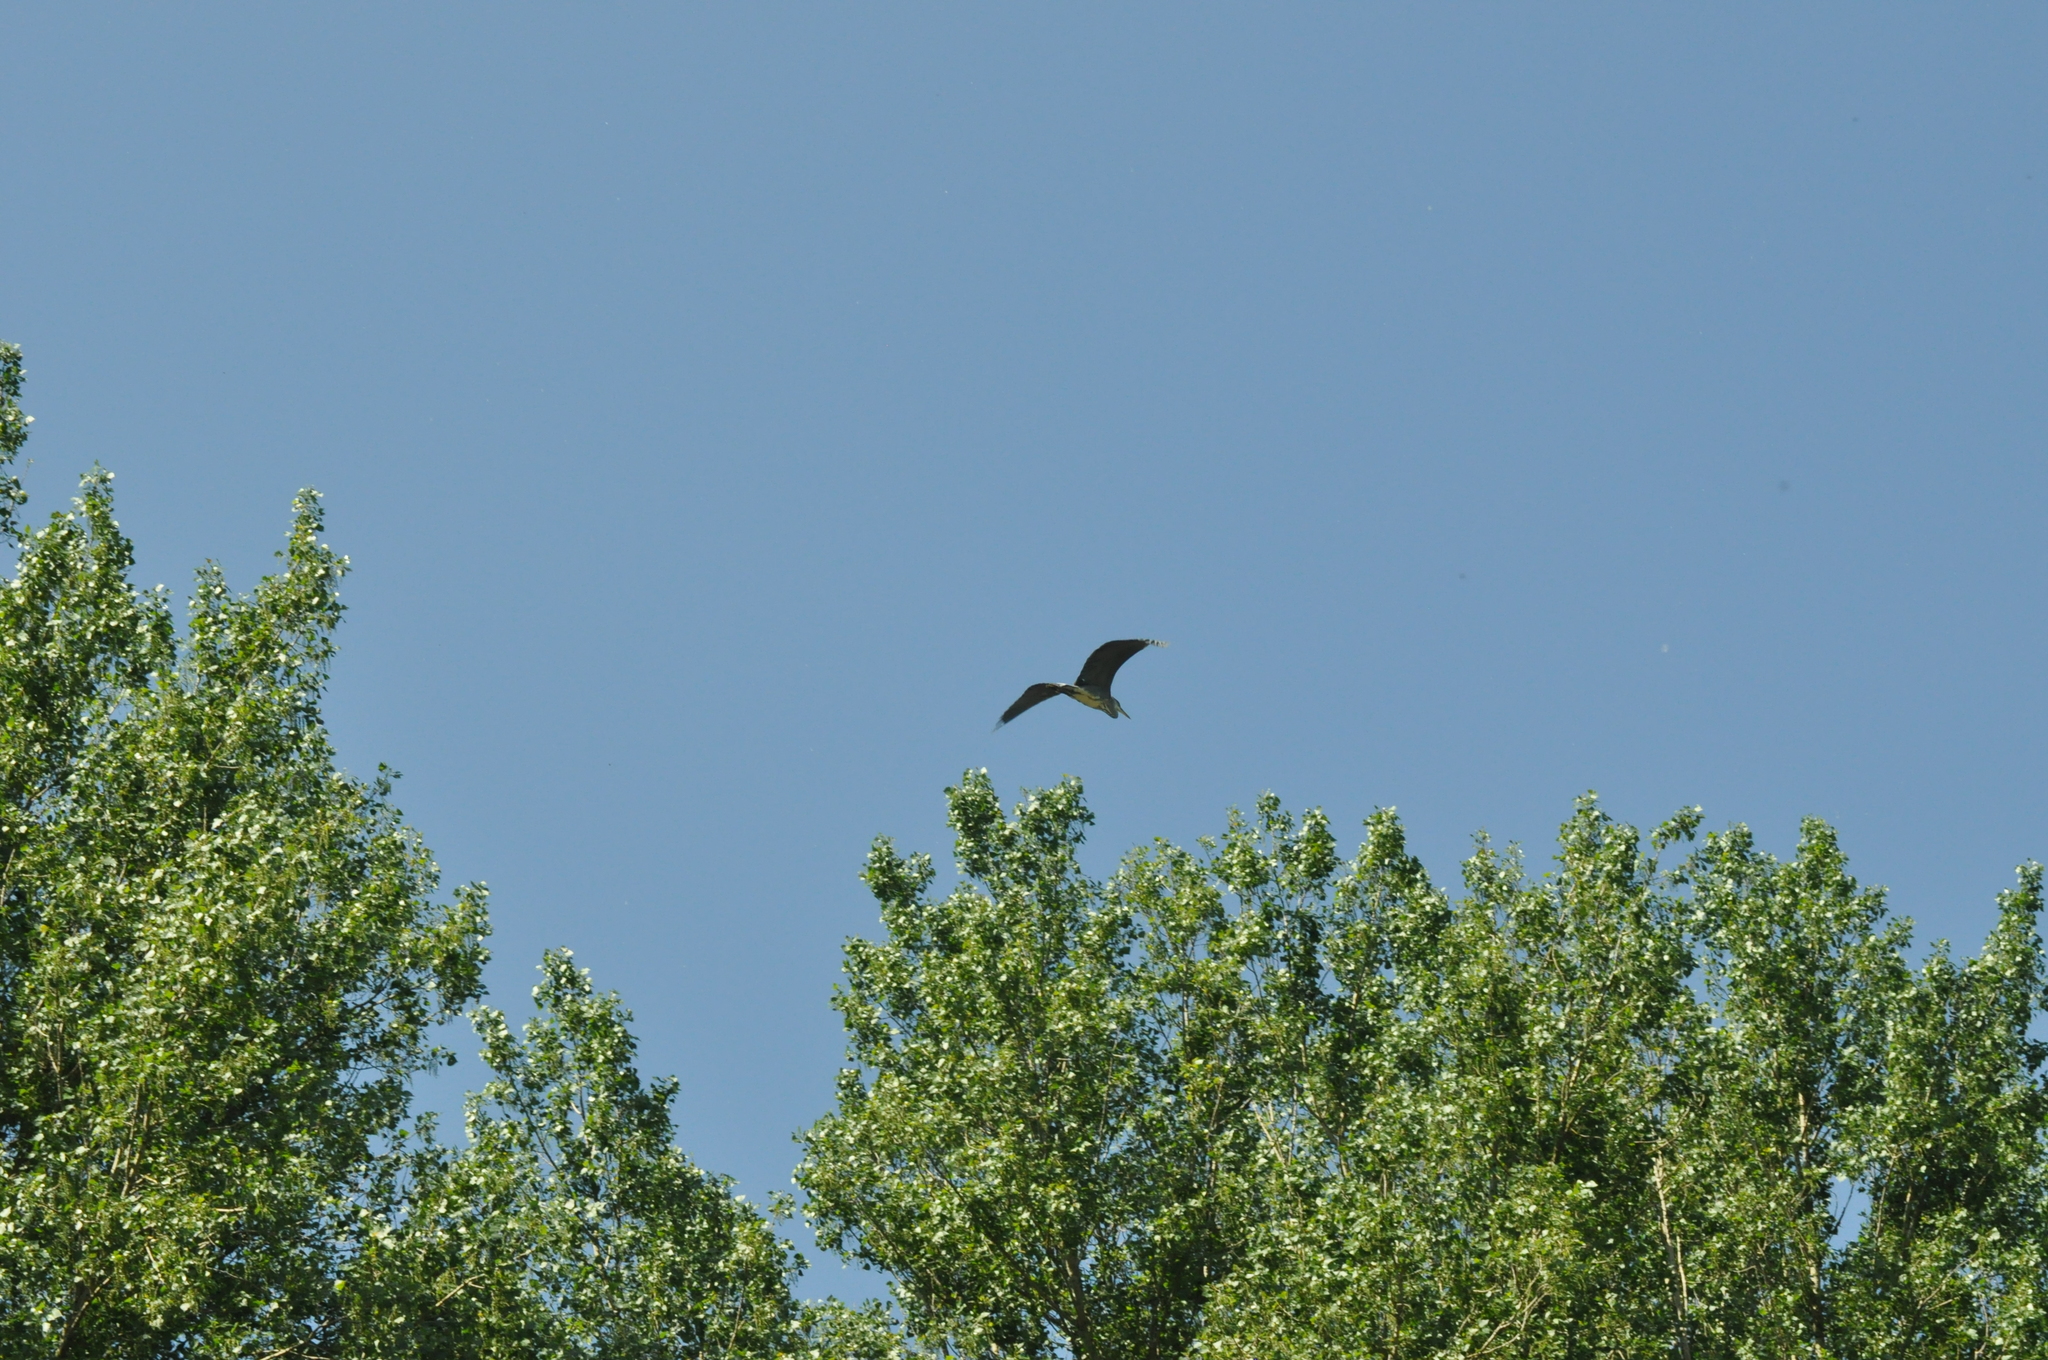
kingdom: Animalia
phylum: Chordata
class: Aves
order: Pelecaniformes
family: Ardeidae
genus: Ardea
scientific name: Ardea cinerea
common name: Grey heron
